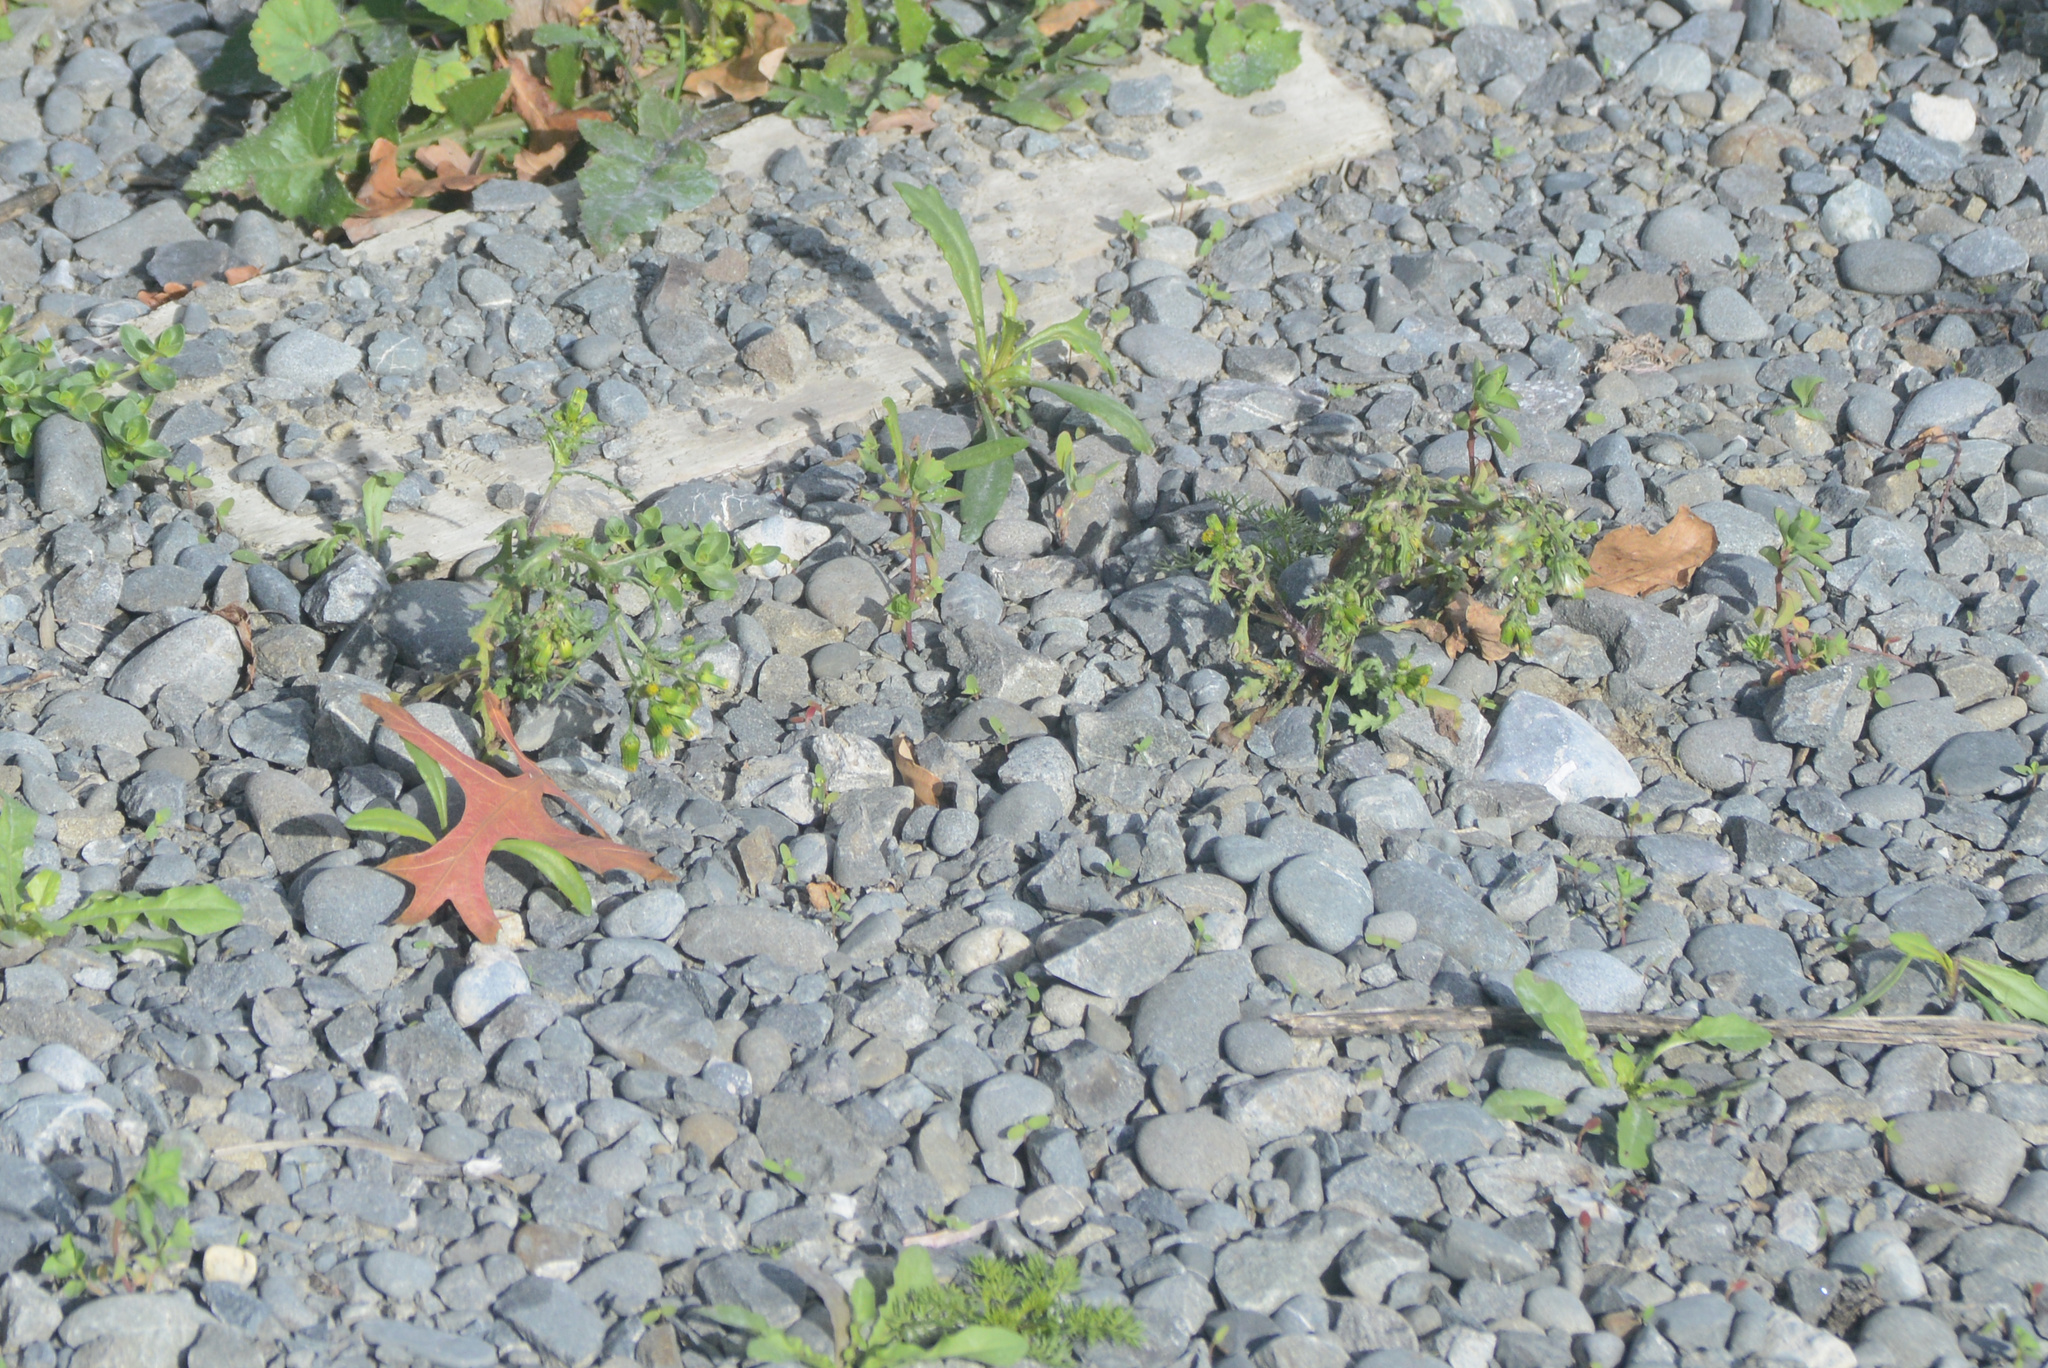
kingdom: Plantae
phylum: Tracheophyta
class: Magnoliopsida
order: Asterales
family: Asteraceae
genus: Senecio
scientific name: Senecio vulgaris
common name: Old-man-in-the-spring
